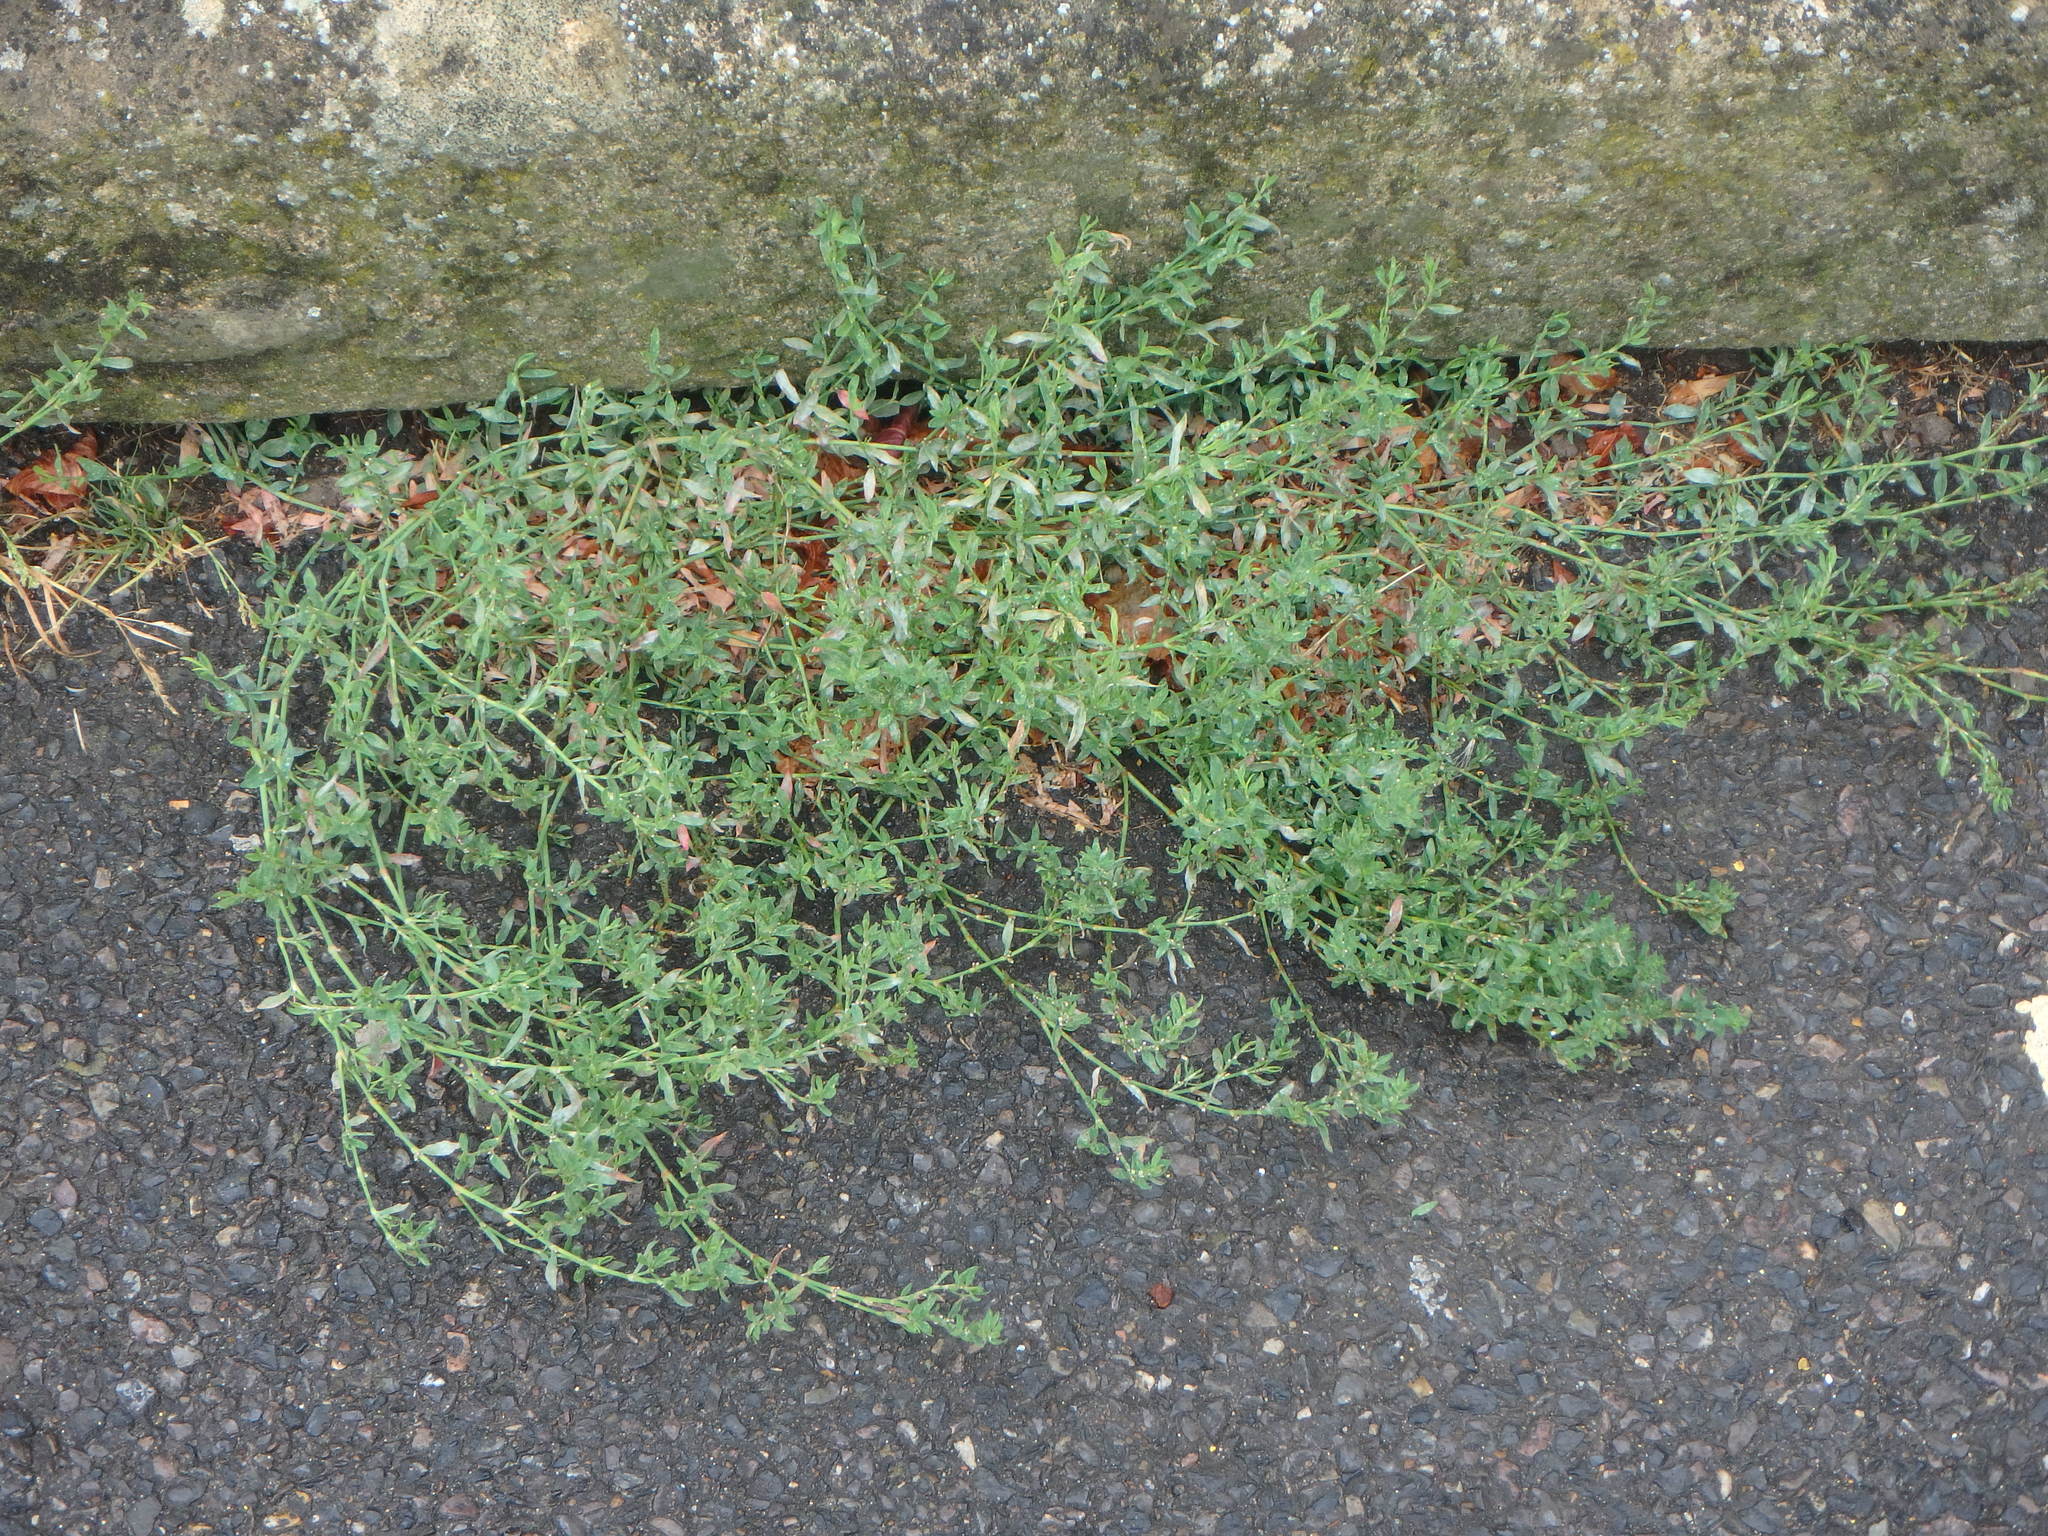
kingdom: Plantae
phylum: Tracheophyta
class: Magnoliopsida
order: Caryophyllales
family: Polygonaceae
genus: Polygonum
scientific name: Polygonum aviculare
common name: Prostrate knotweed
